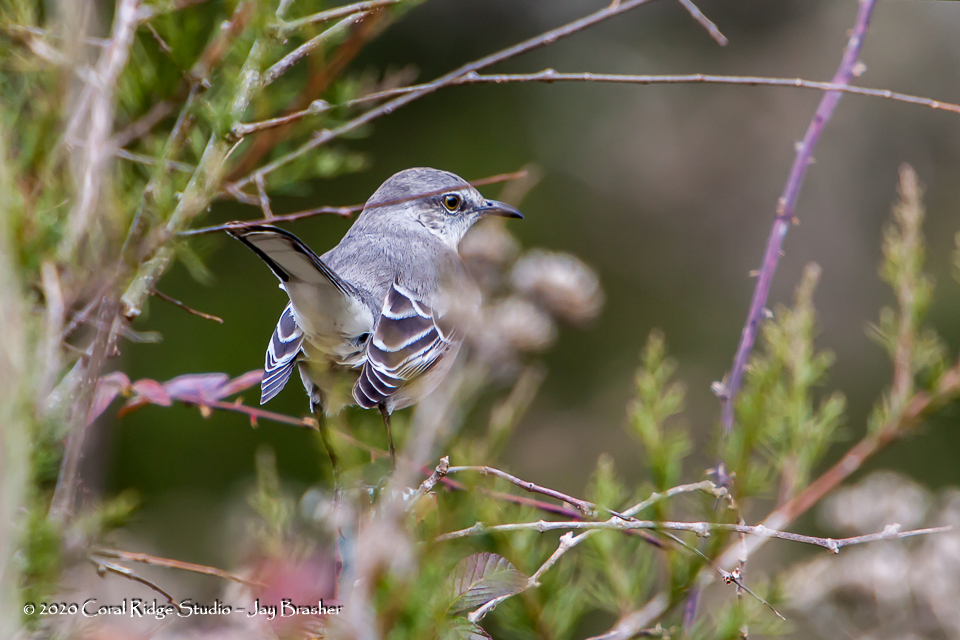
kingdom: Animalia
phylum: Chordata
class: Aves
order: Passeriformes
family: Mimidae
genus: Mimus
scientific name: Mimus polyglottos
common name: Northern mockingbird
